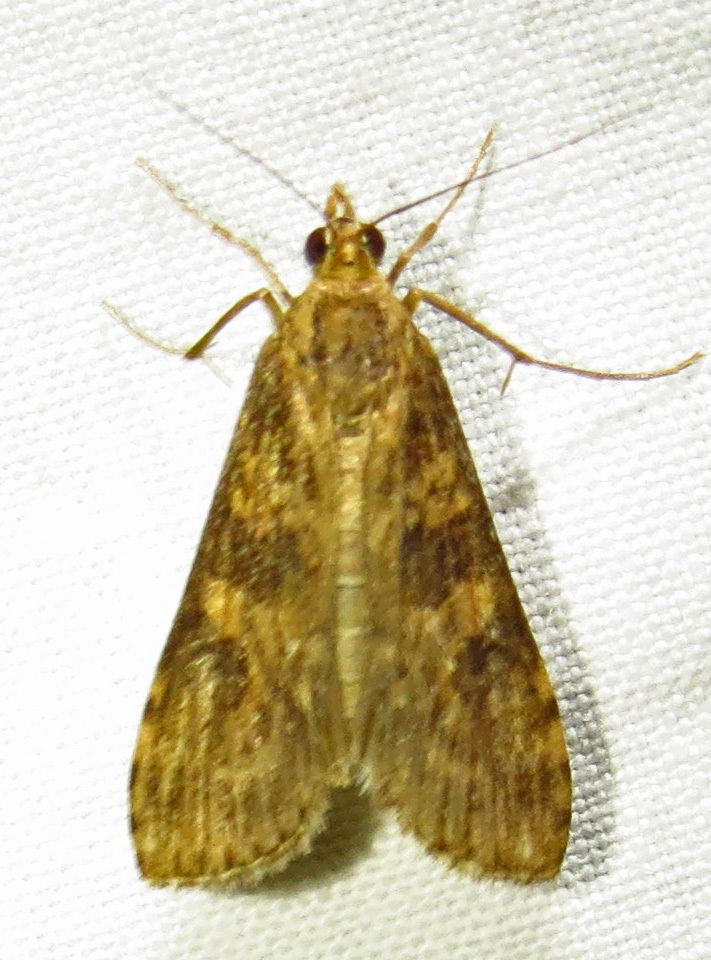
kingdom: Animalia
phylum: Arthropoda
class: Insecta
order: Lepidoptera
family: Crambidae
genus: Nomophila
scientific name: Nomophila nearctica
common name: American rush veneer
